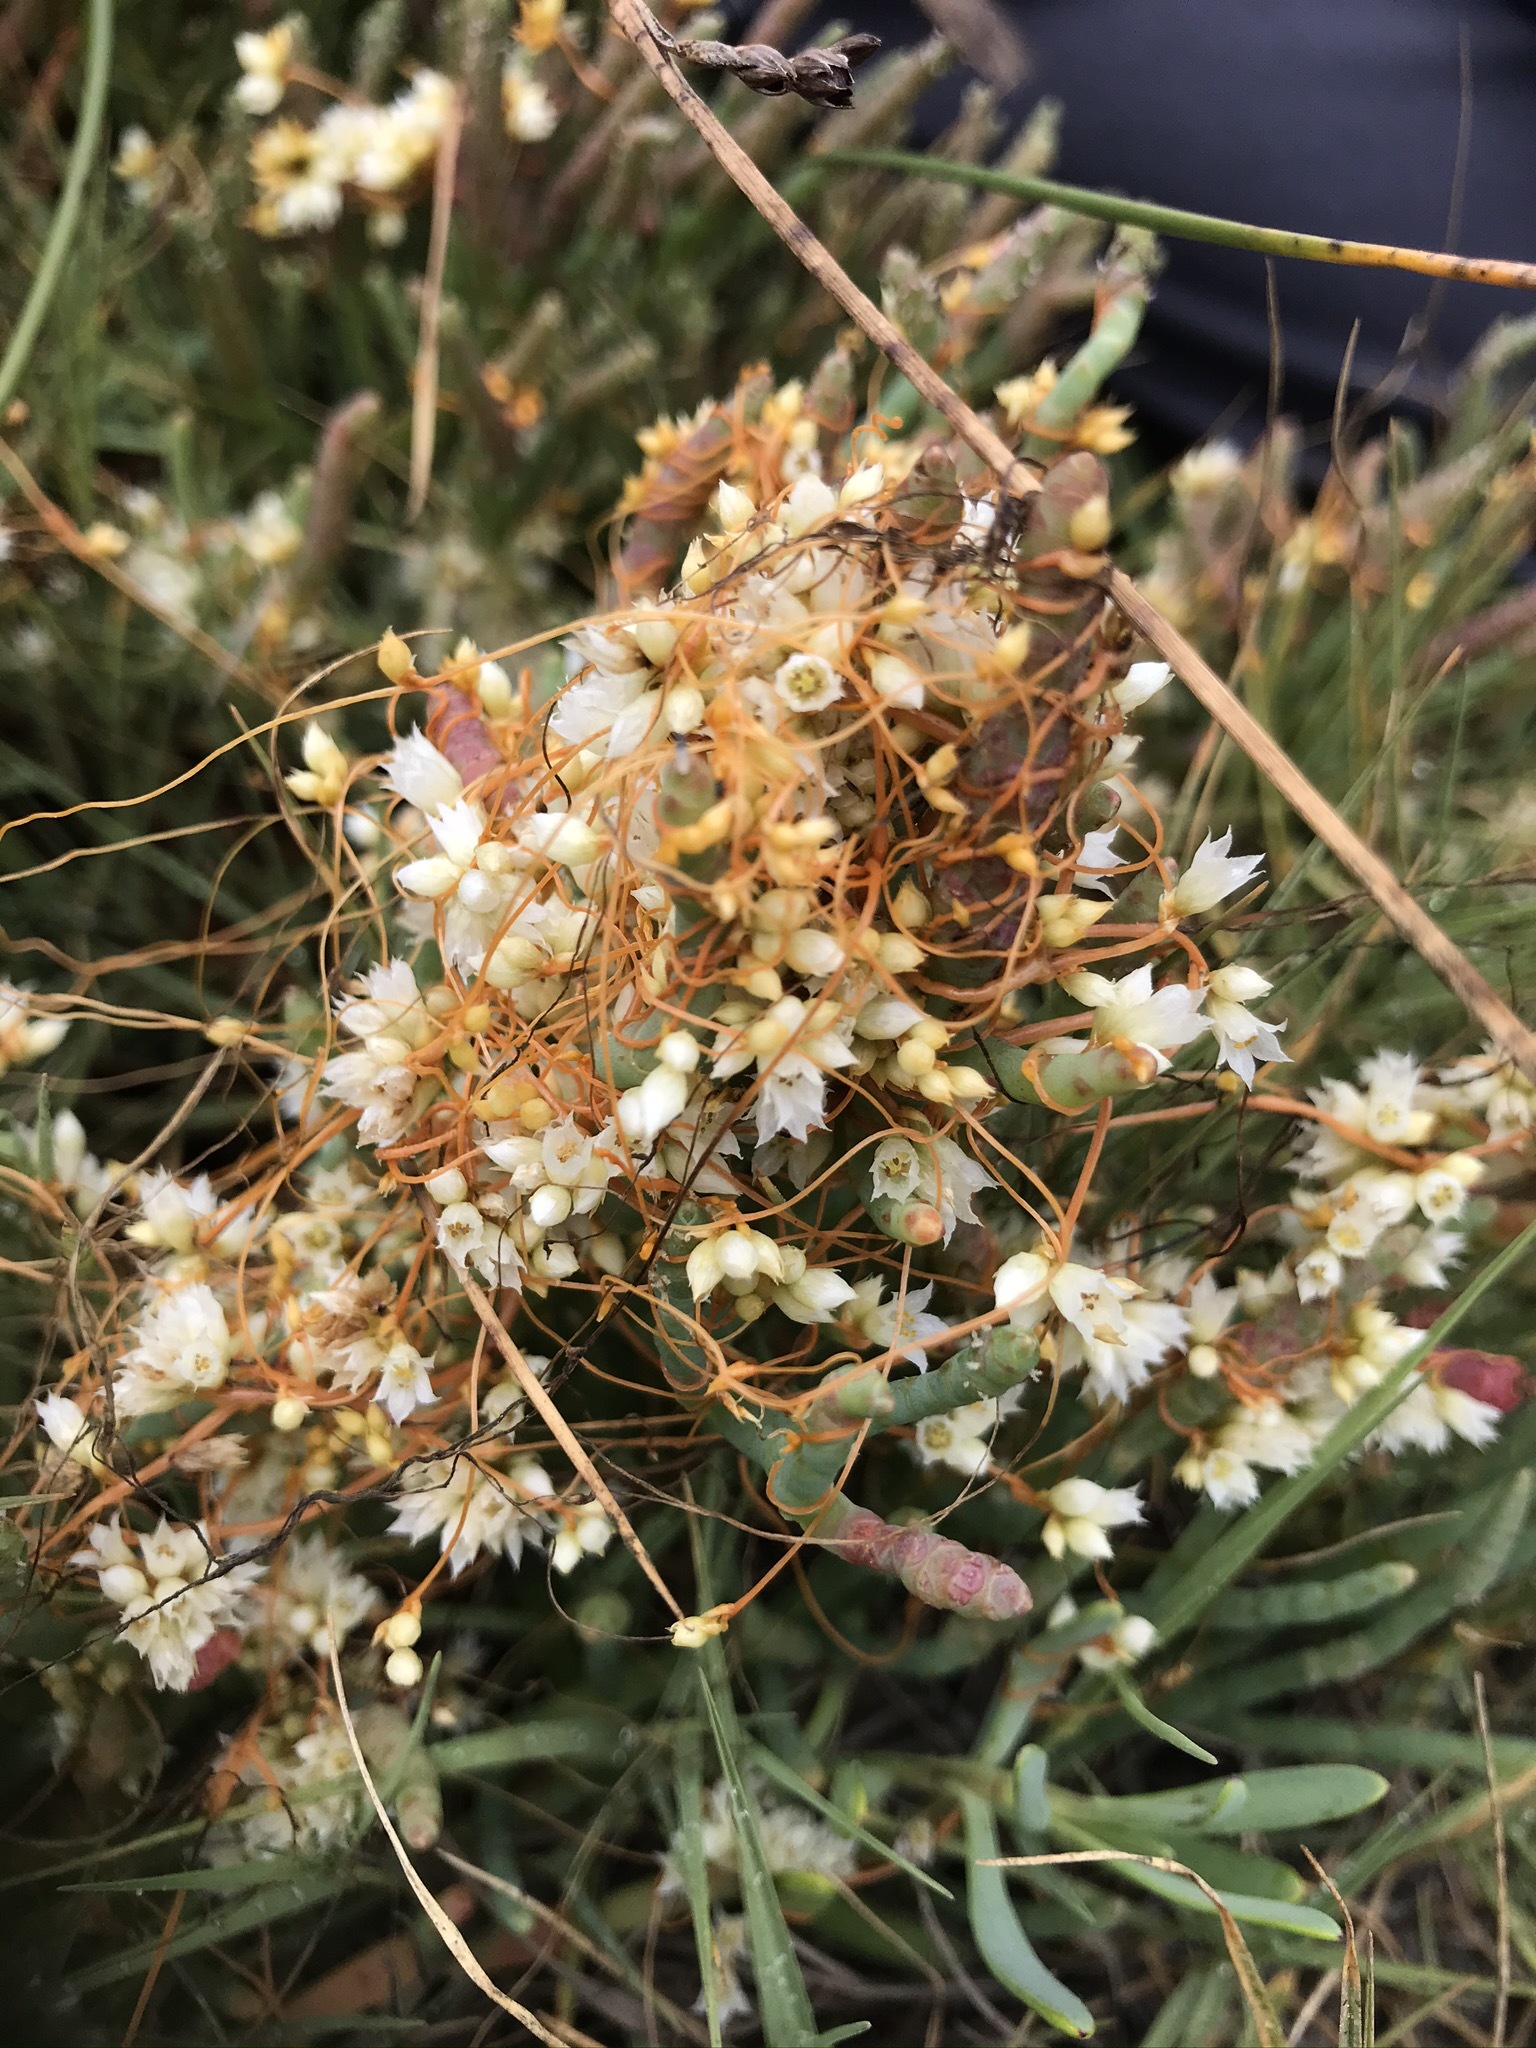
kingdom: Plantae
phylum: Tracheophyta
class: Magnoliopsida
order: Solanales
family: Convolvulaceae
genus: Cuscuta
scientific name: Cuscuta pacifica
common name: Large saltmarsh dodder
